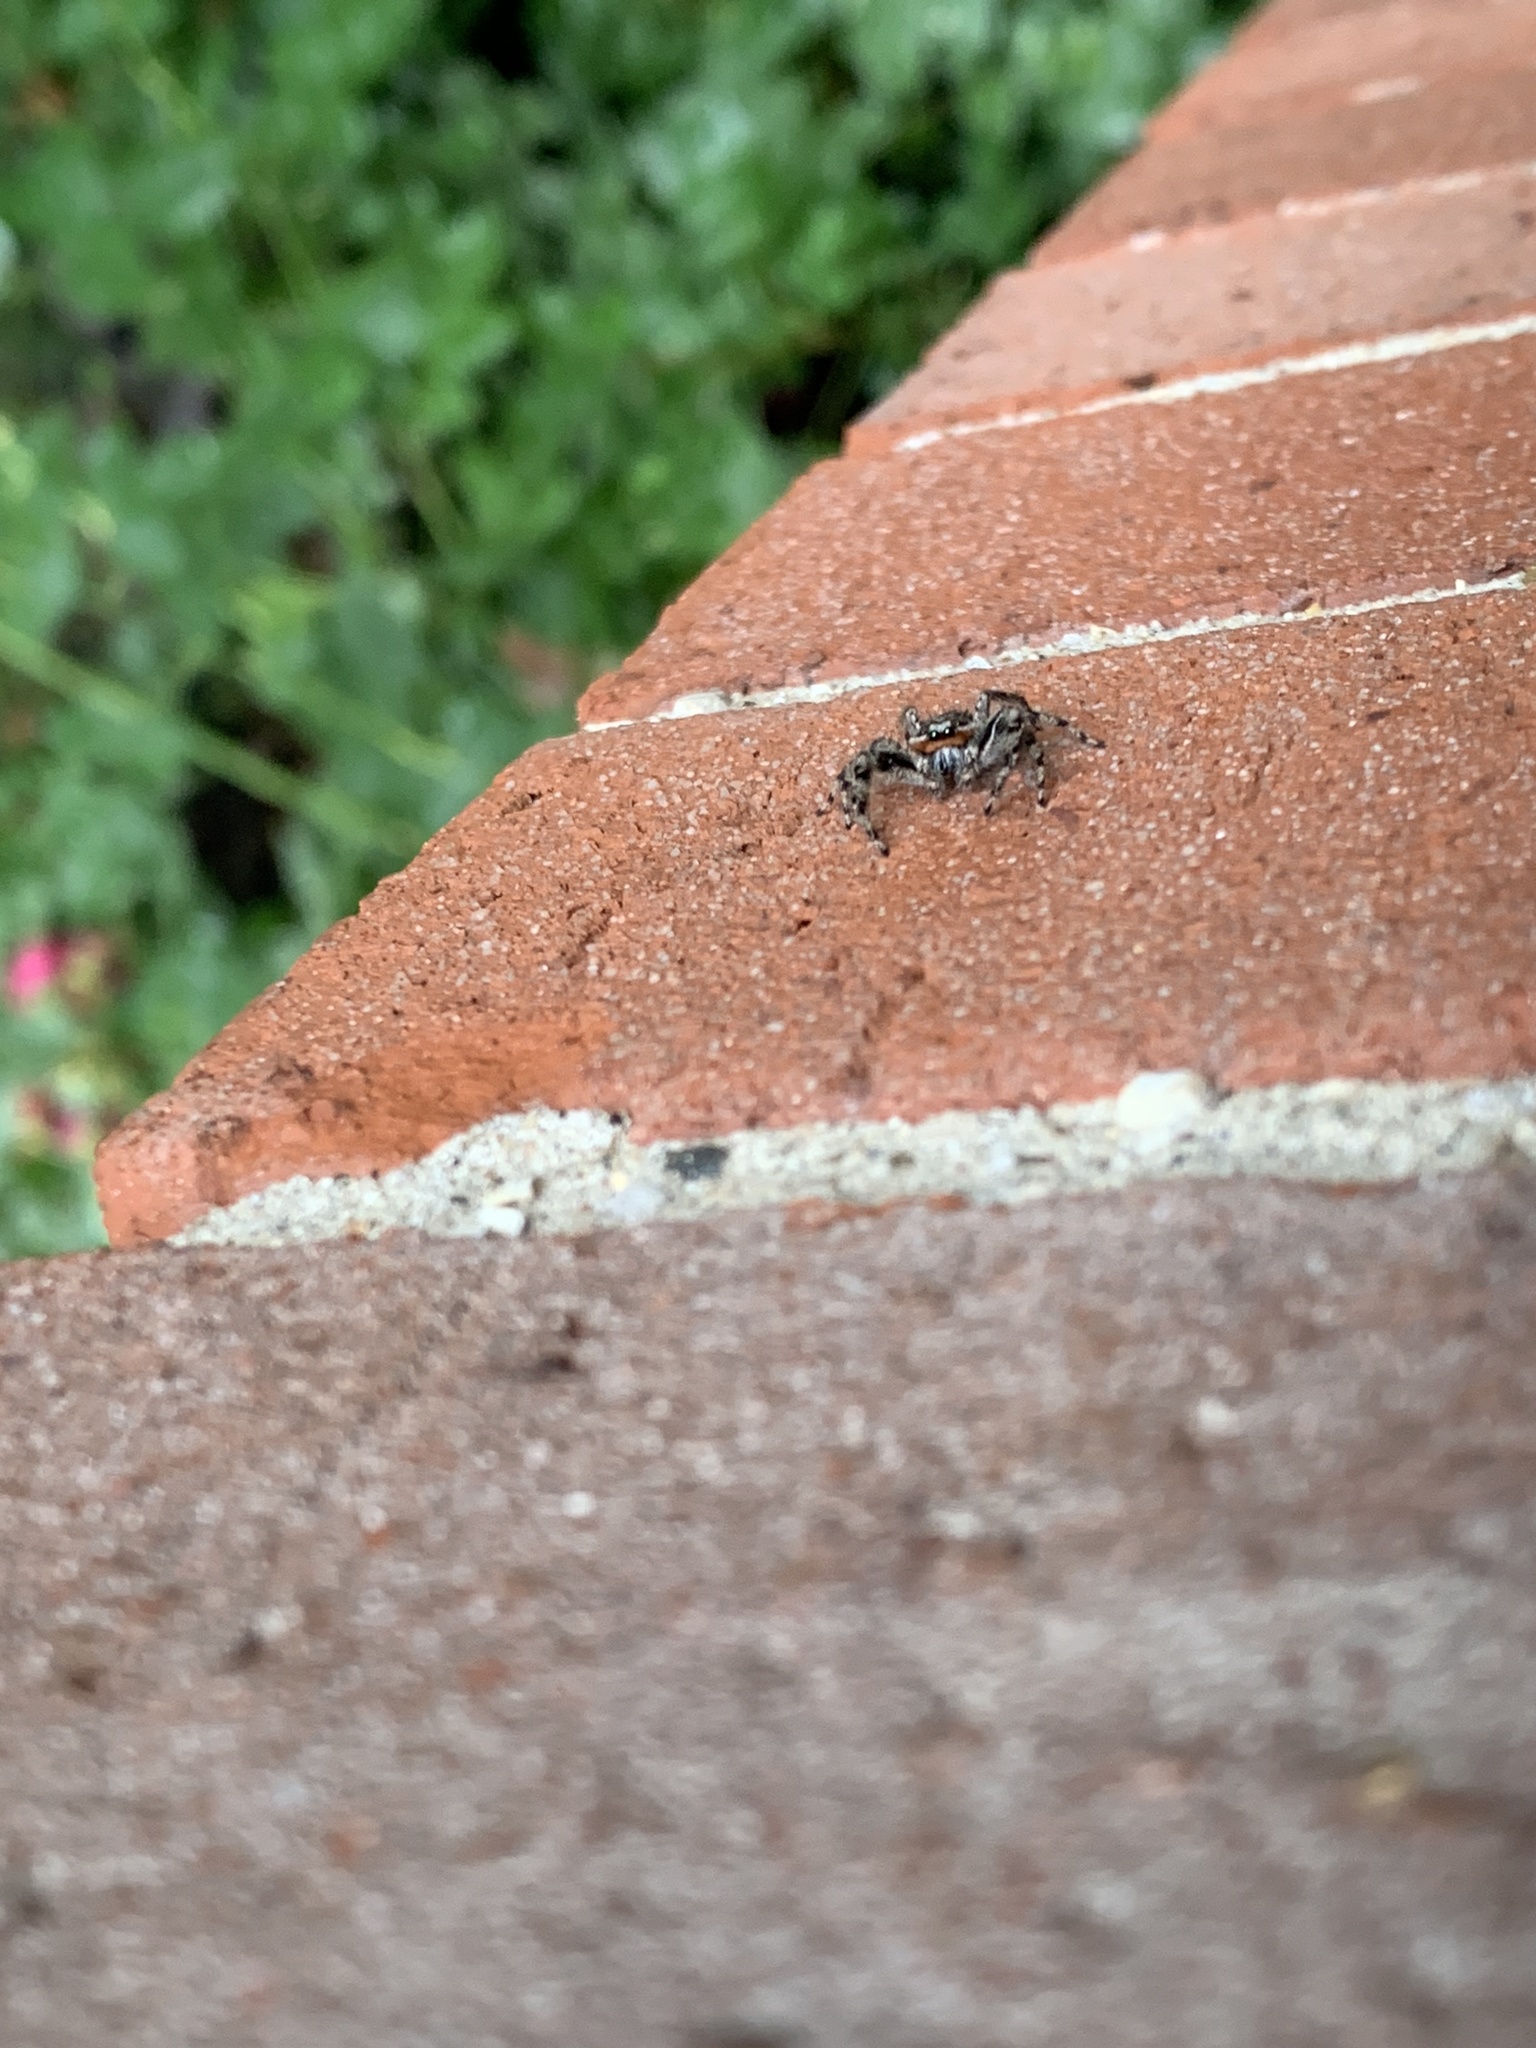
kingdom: Animalia
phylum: Arthropoda
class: Arachnida
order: Araneae
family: Salticidae
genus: Platycryptus
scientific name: Platycryptus undatus
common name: Tan jumping spider
